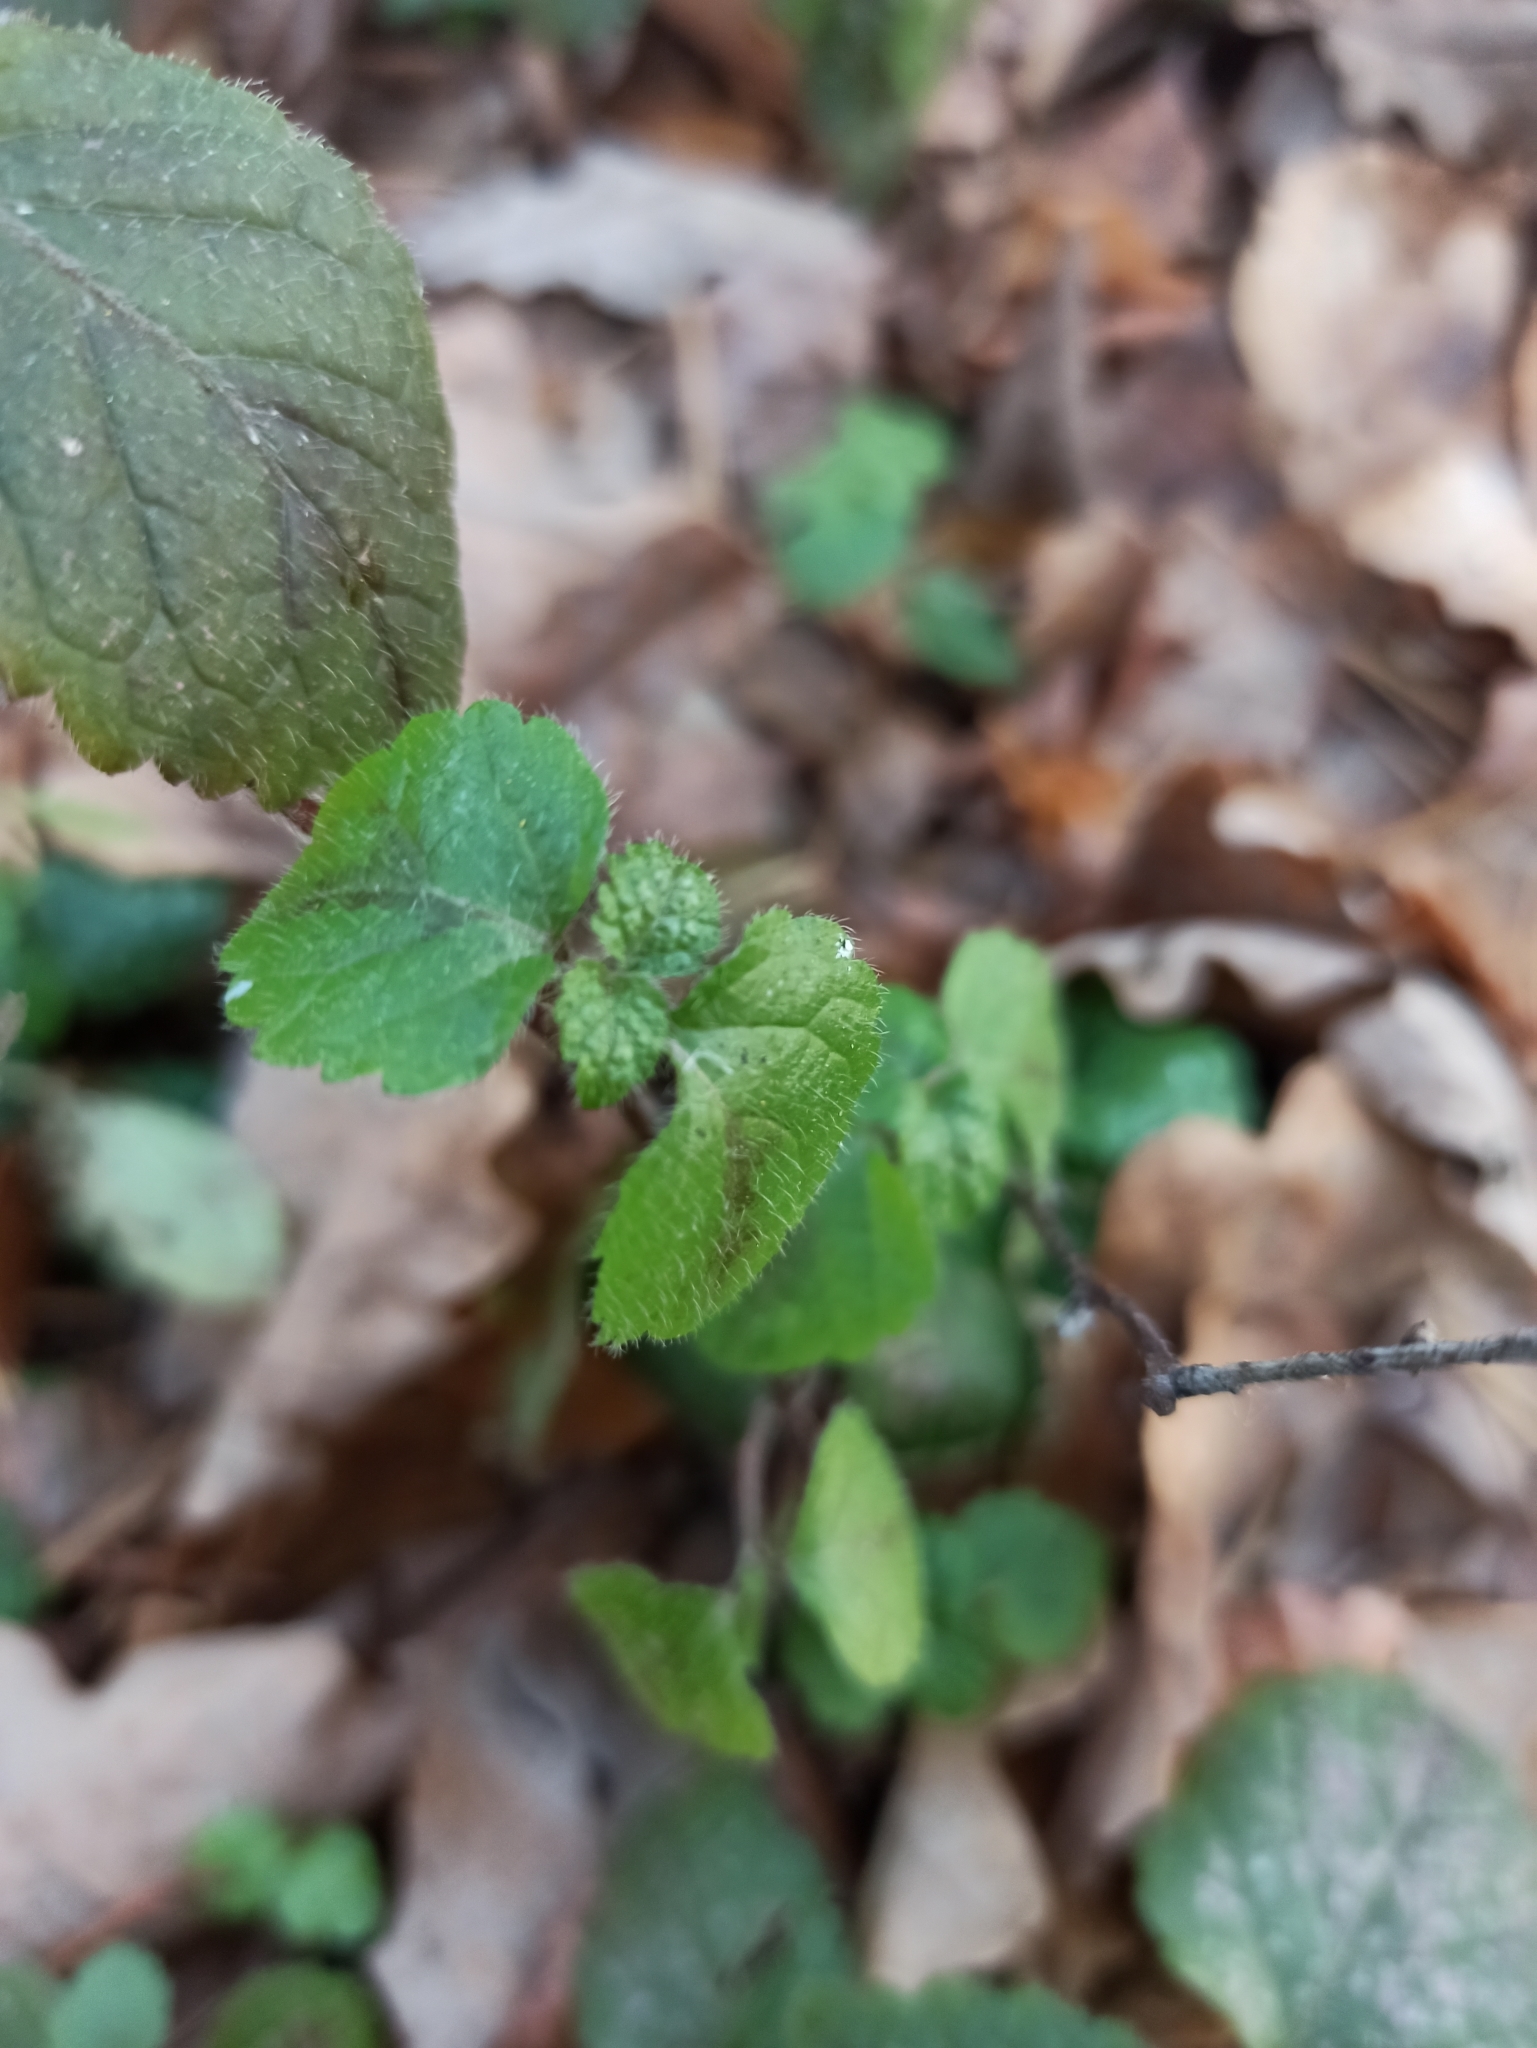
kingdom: Plantae
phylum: Tracheophyta
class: Magnoliopsida
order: Lamiales
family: Lamiaceae
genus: Lamium
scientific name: Lamium galeobdolon
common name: Yellow archangel
